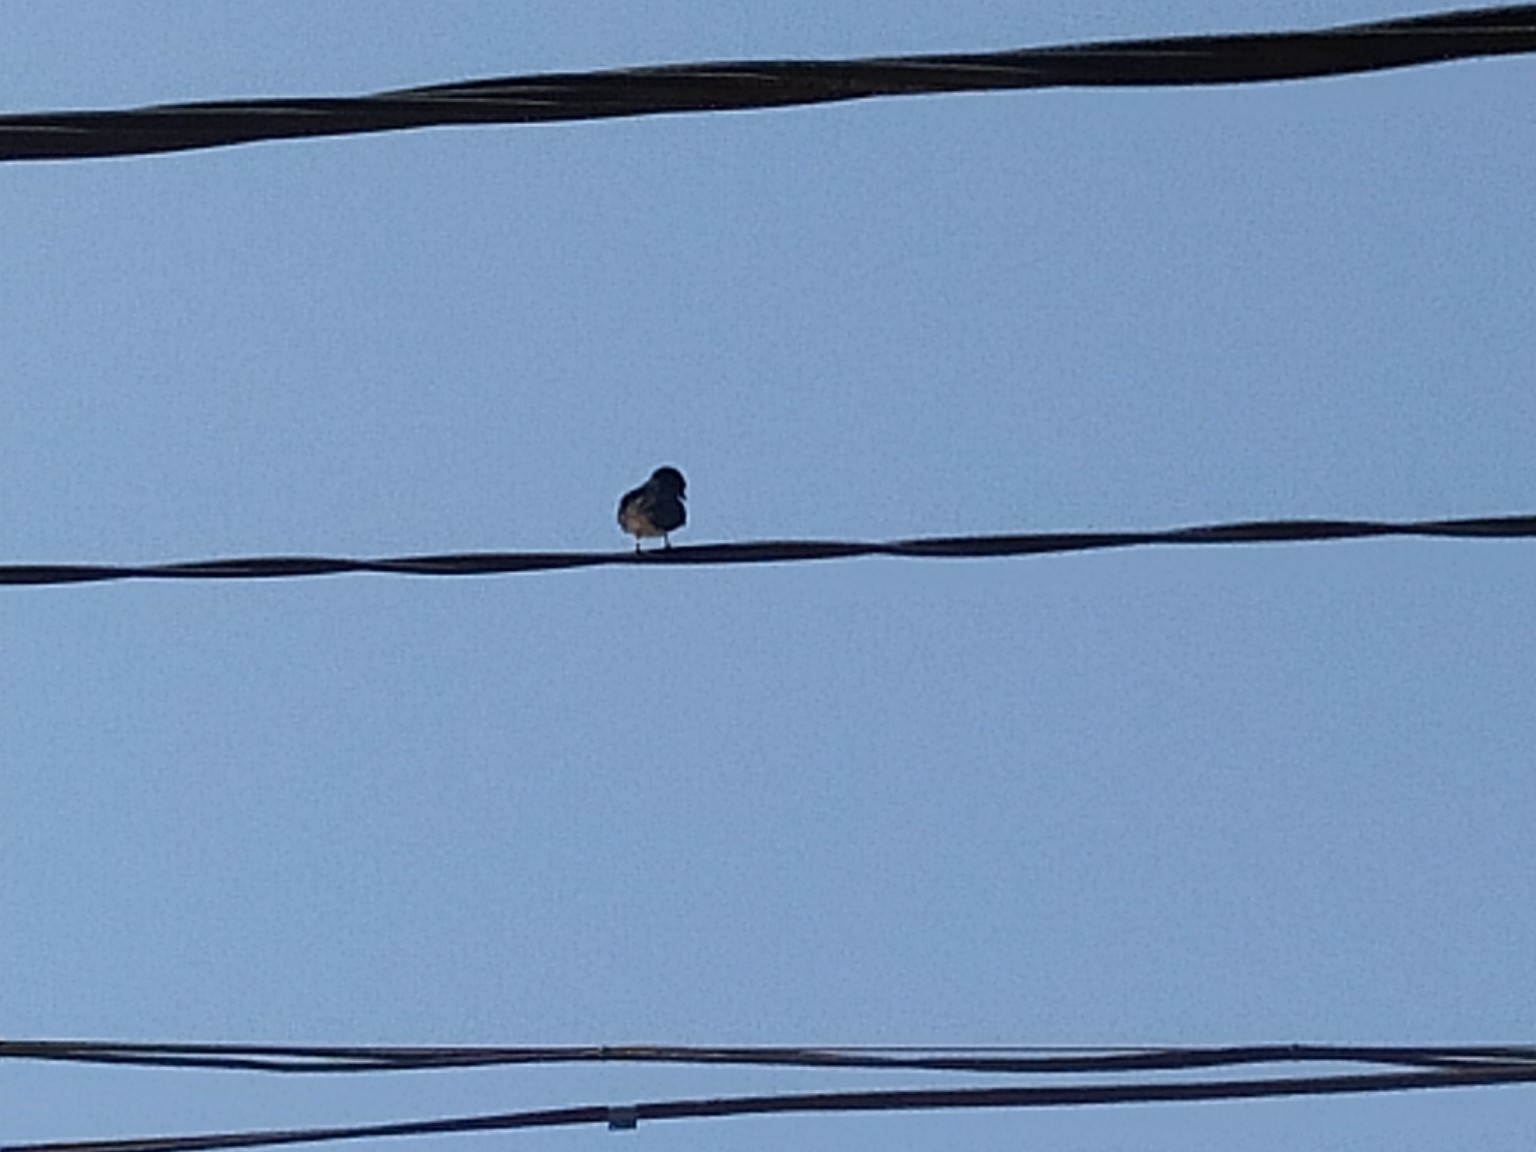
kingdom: Animalia
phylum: Chordata
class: Aves
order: Passeriformes
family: Hirundinidae
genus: Hirundo
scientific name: Hirundo rustica
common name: Barn swallow
